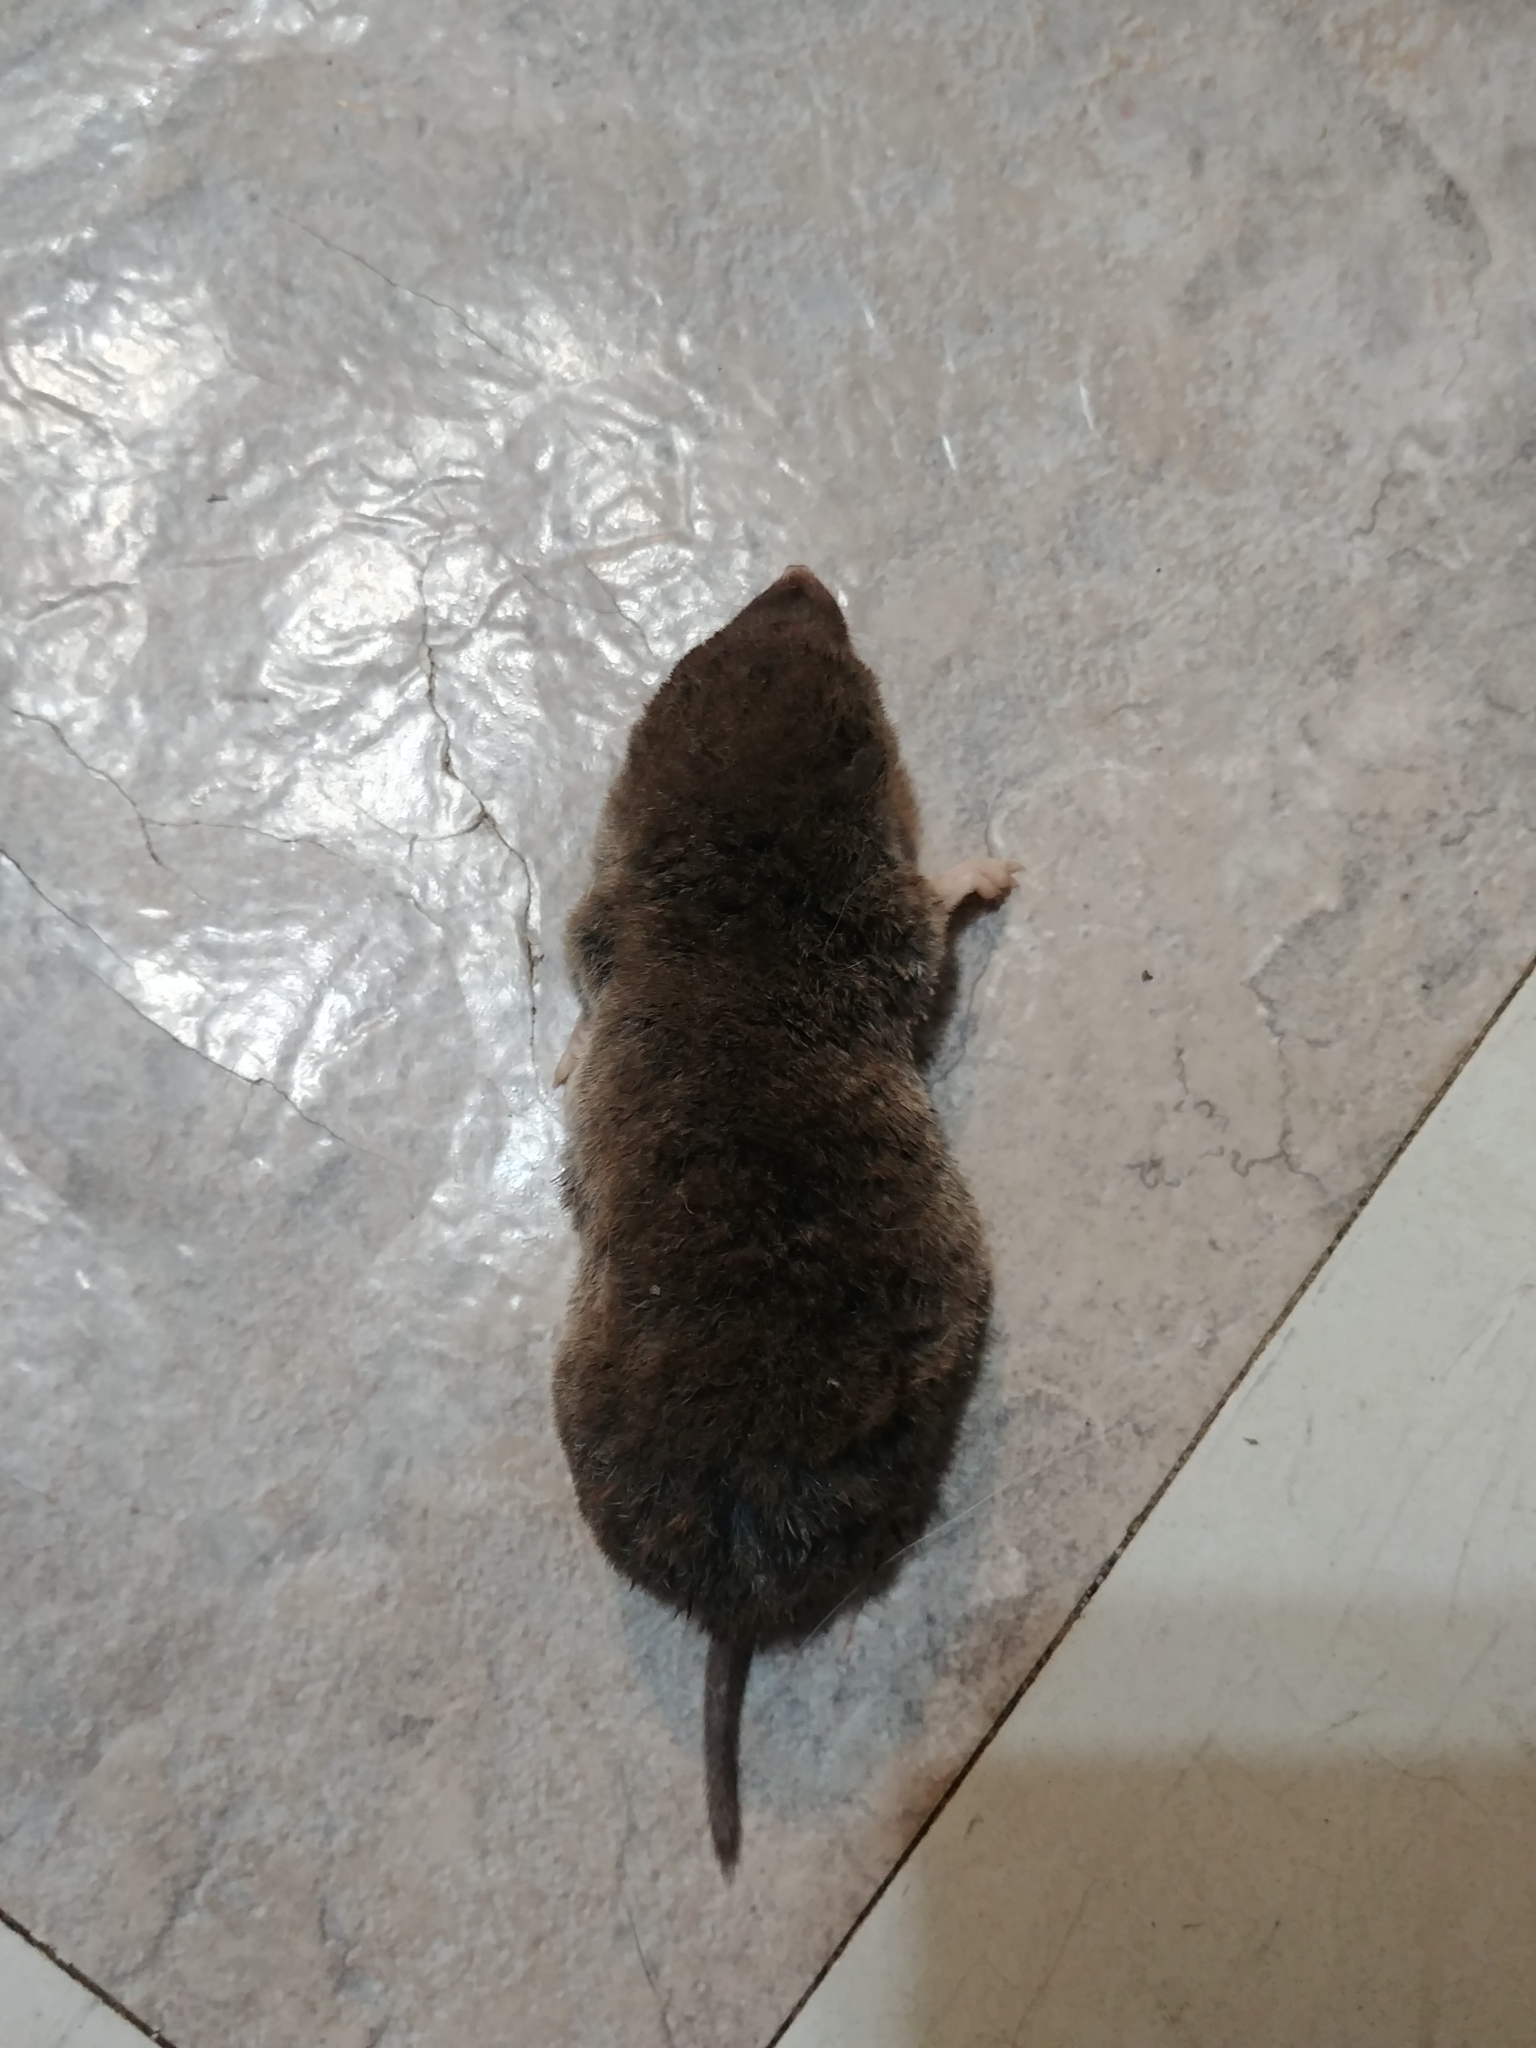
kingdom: Animalia
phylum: Chordata
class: Mammalia
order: Soricomorpha
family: Soricidae
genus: Blarina
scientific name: Blarina brevicauda
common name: Northern short-tailed shrew
